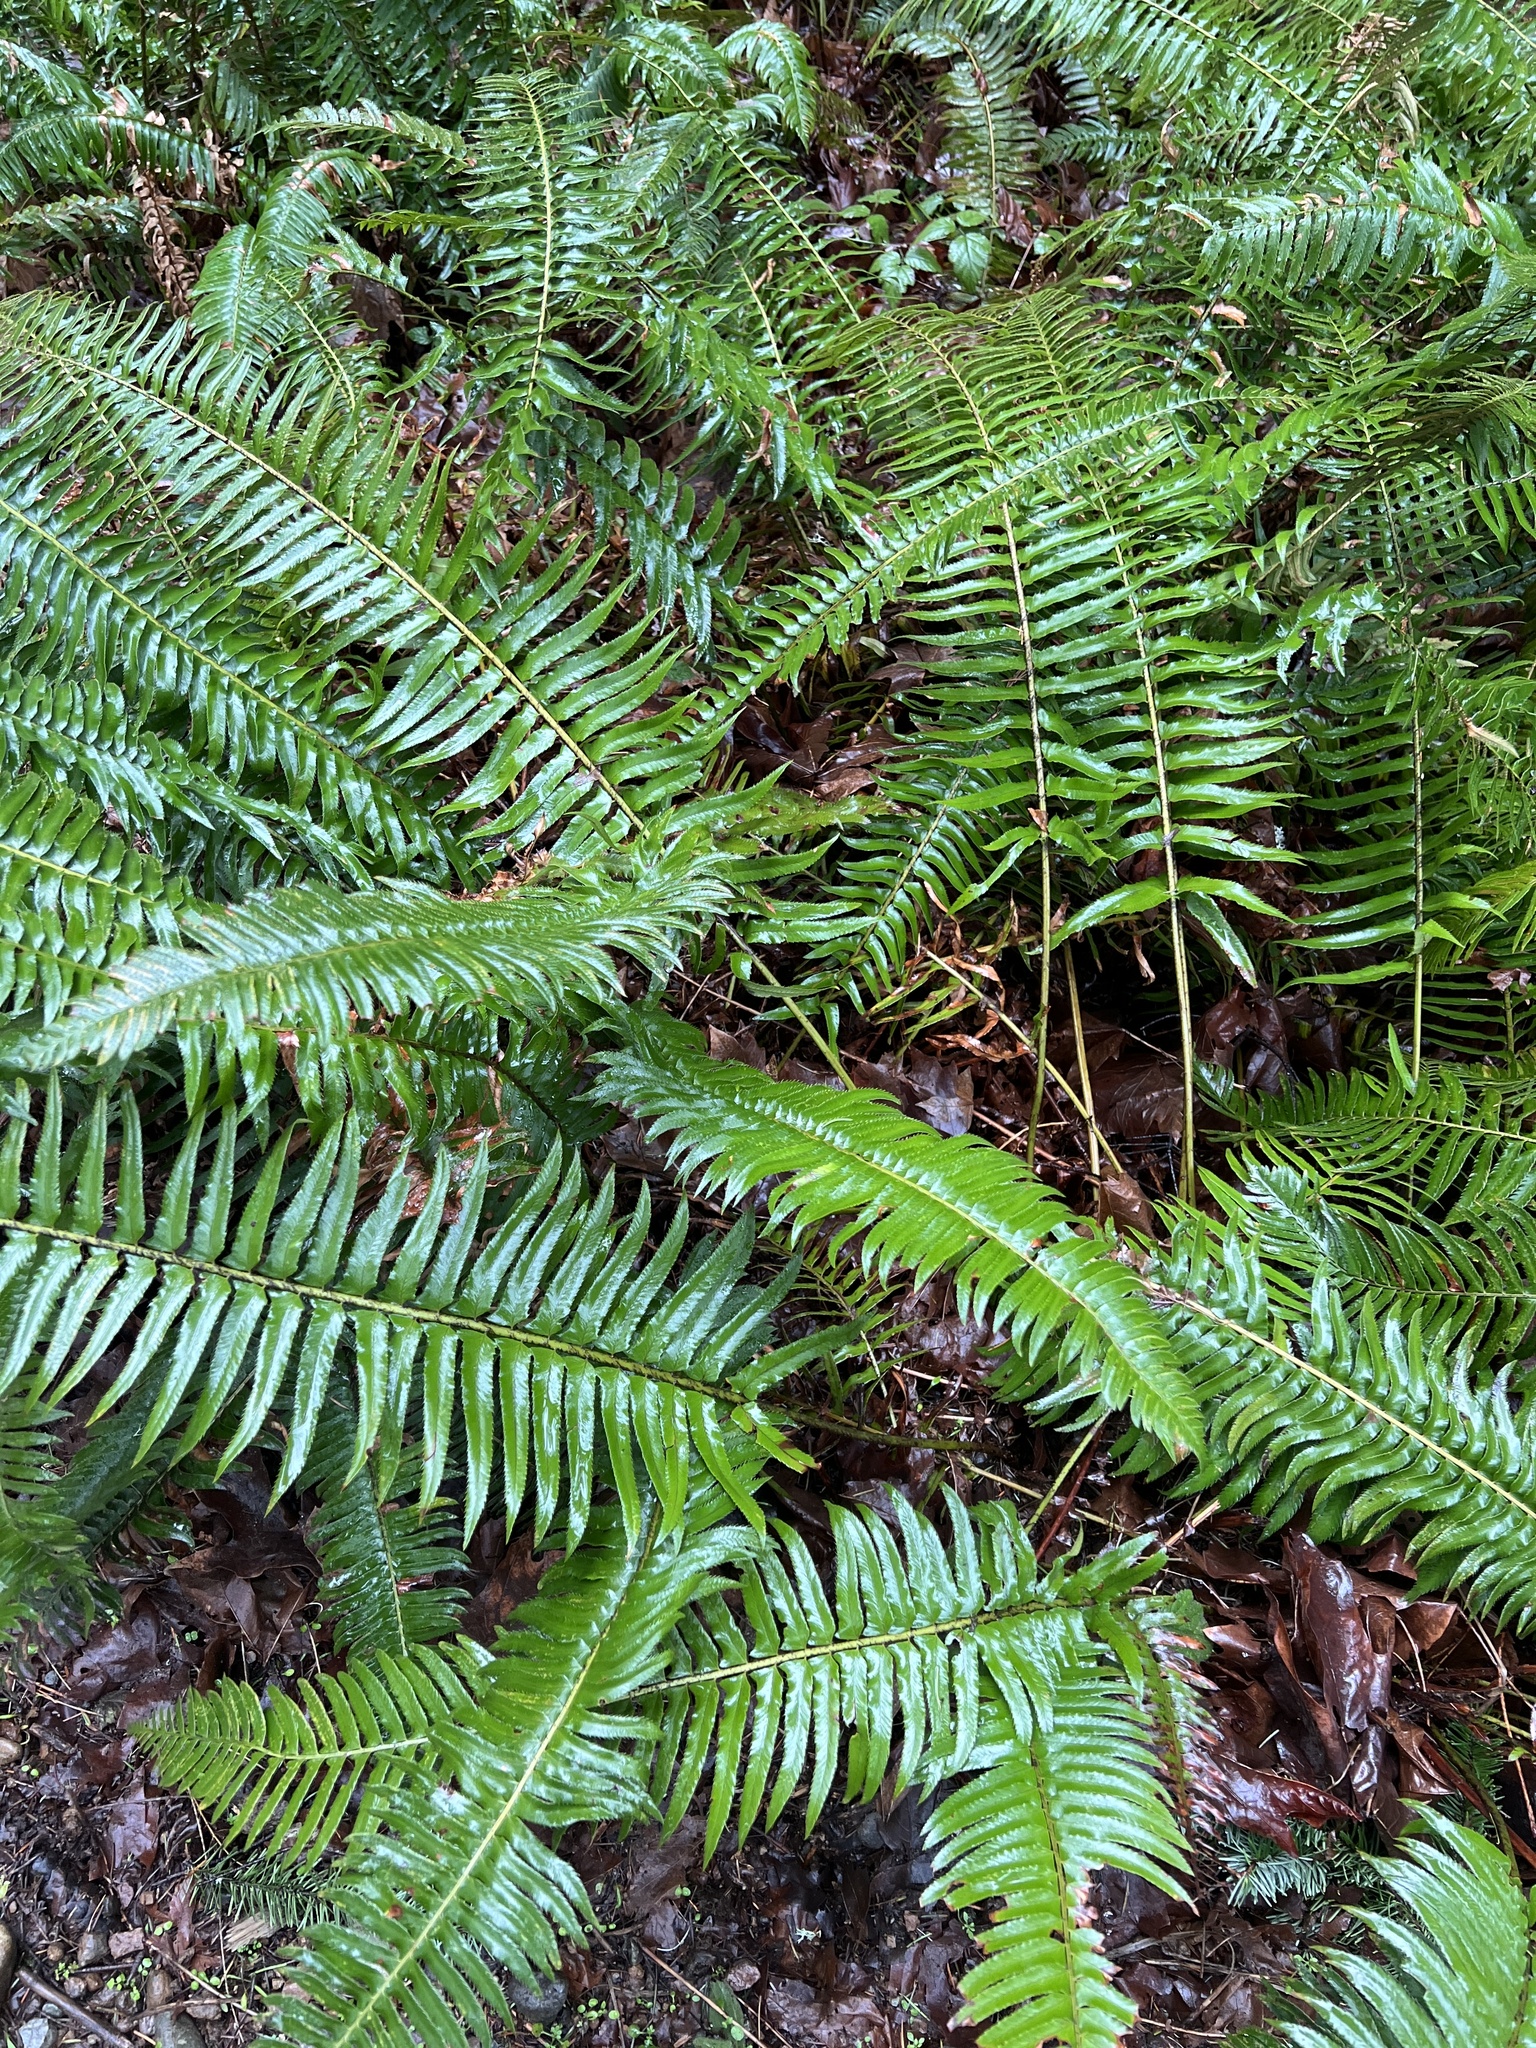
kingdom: Plantae
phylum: Tracheophyta
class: Polypodiopsida
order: Polypodiales
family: Dryopteridaceae
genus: Polystichum
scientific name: Polystichum munitum
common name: Western sword-fern
